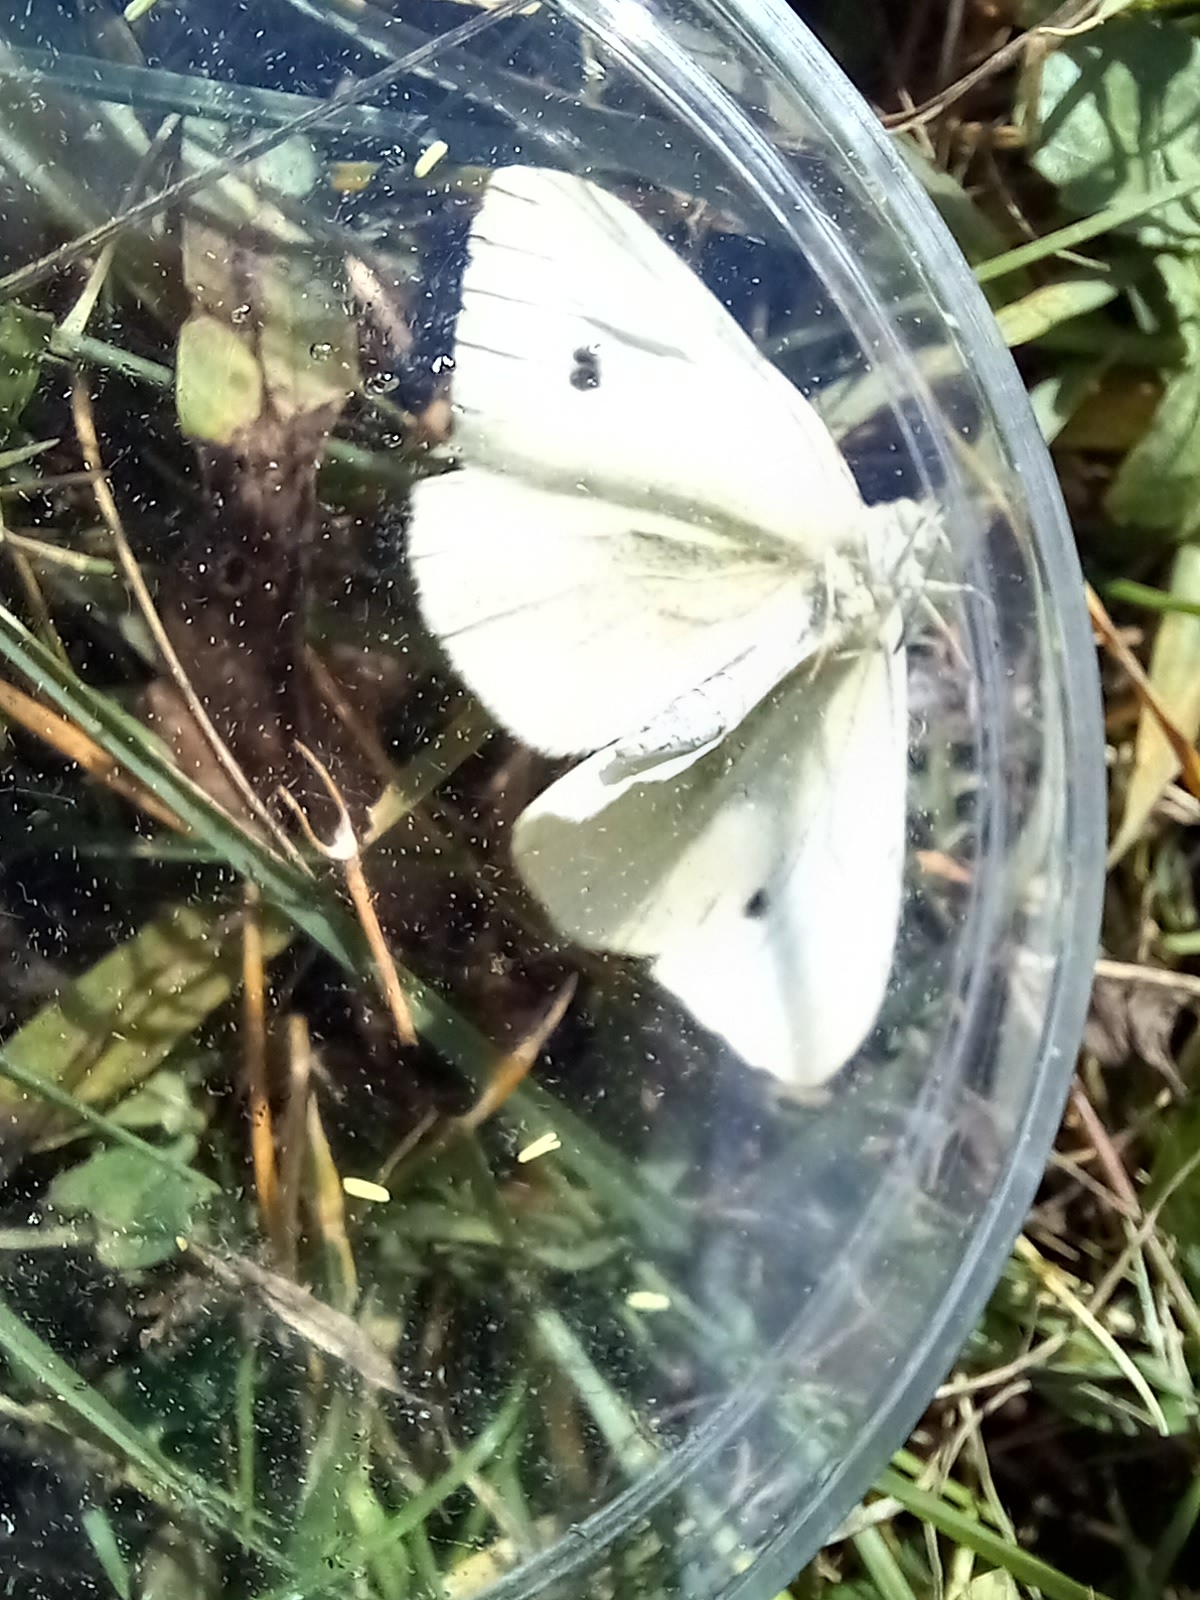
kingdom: Animalia
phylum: Arthropoda
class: Insecta
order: Lepidoptera
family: Pieridae
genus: Pieris
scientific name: Pieris rapae
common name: Small white
